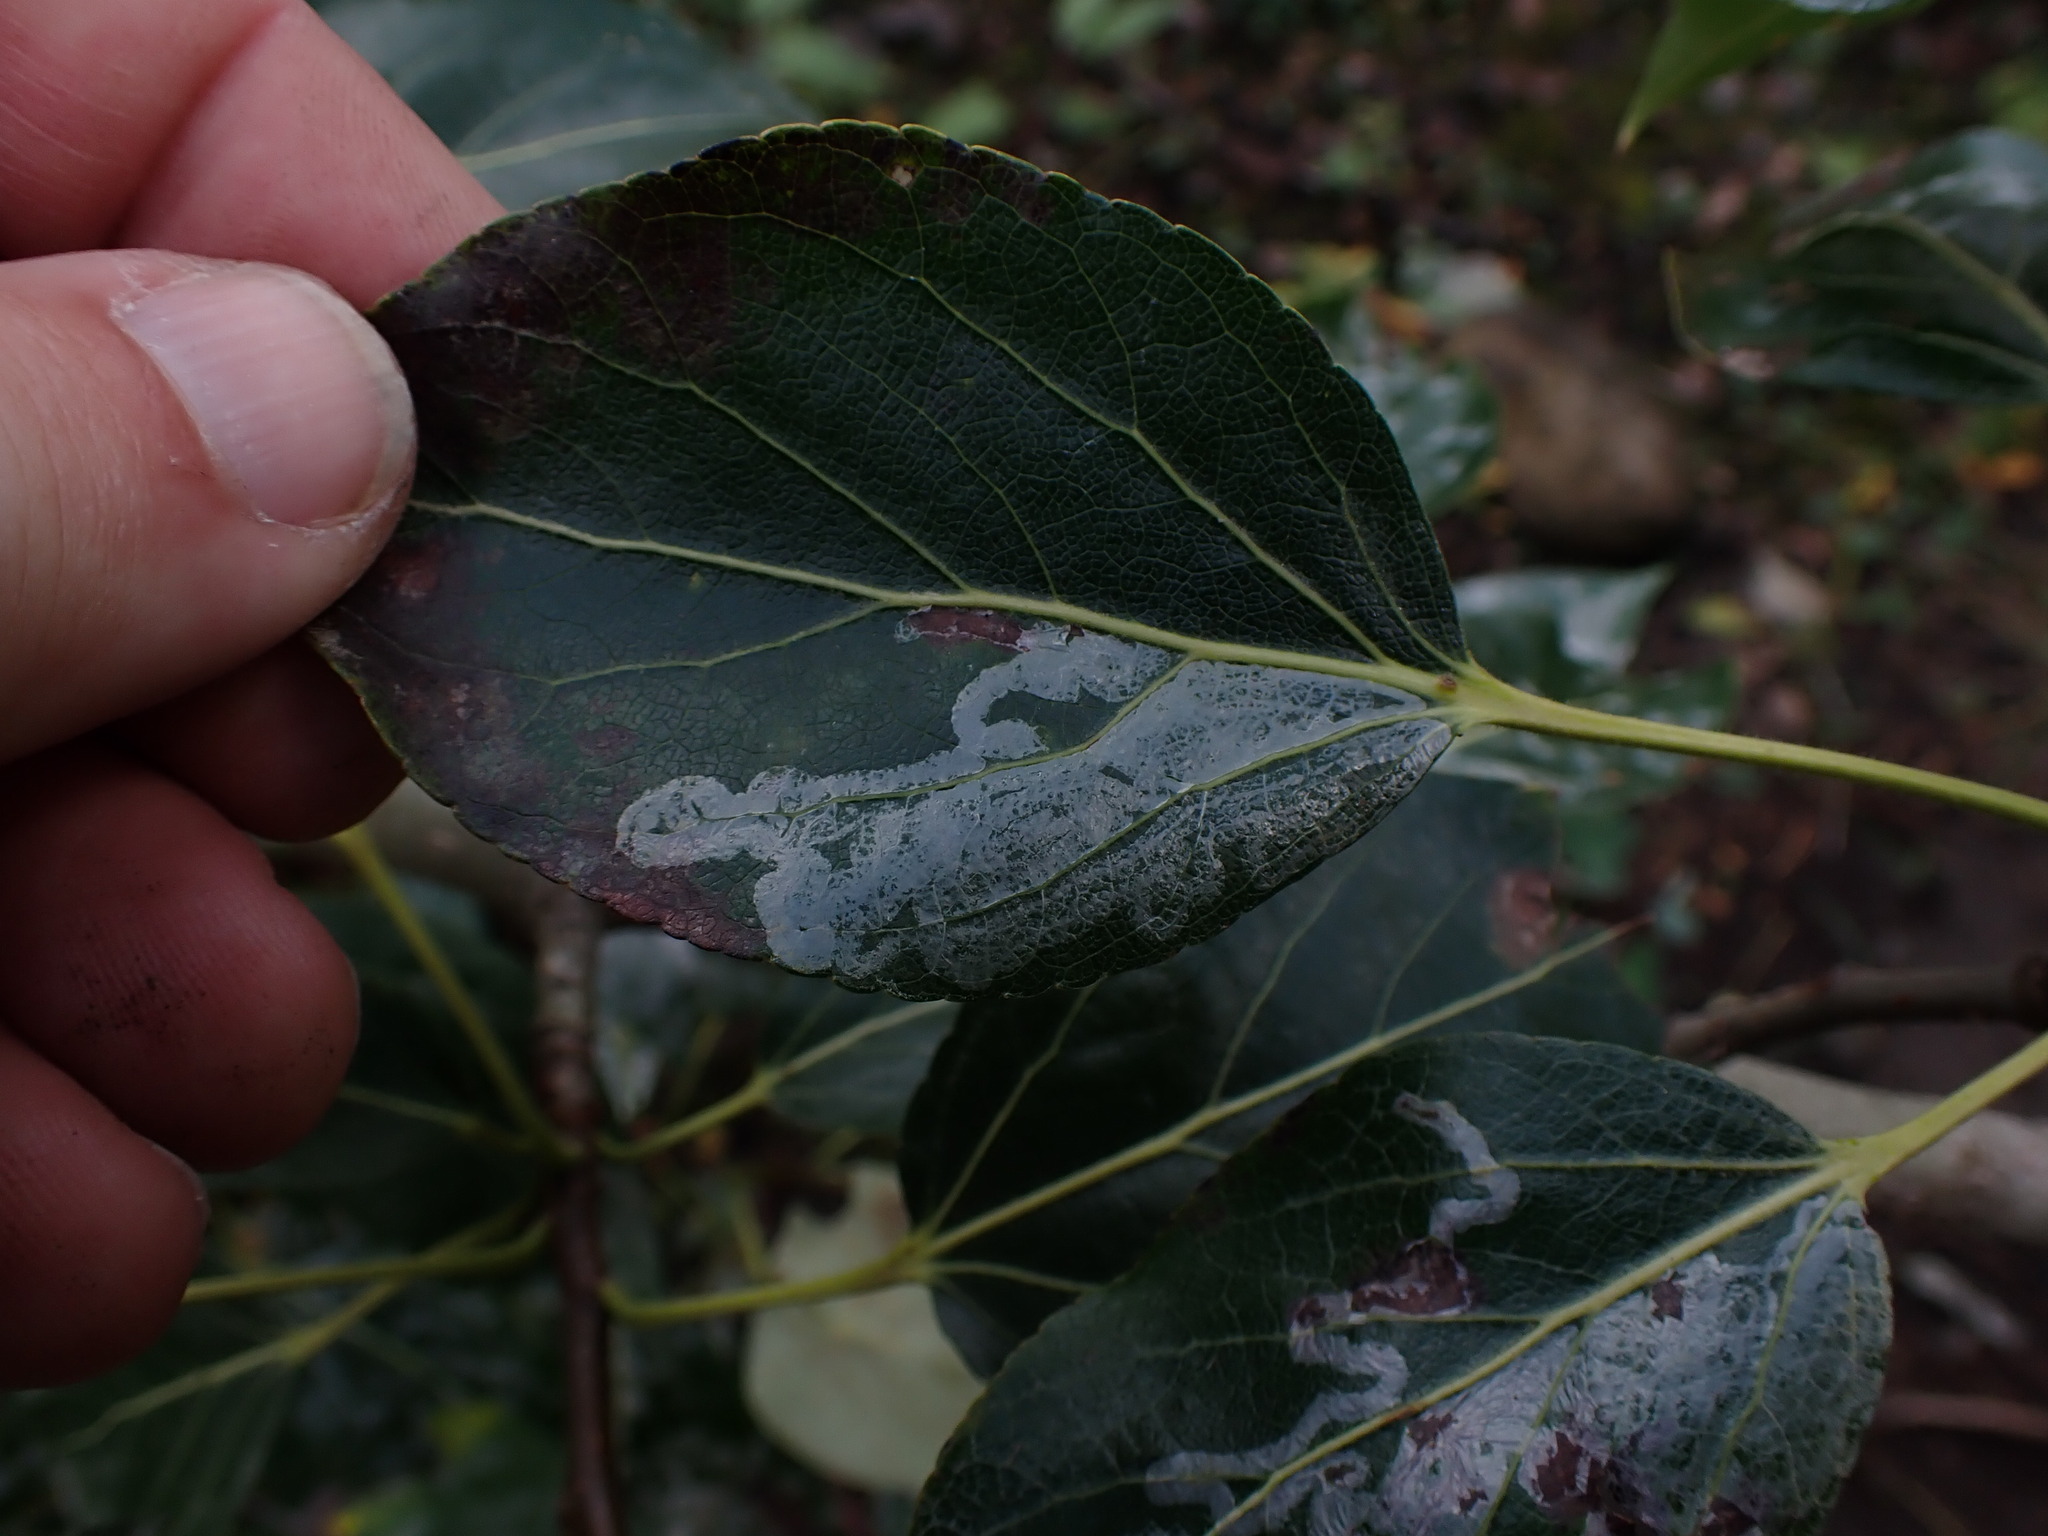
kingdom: Animalia
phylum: Arthropoda
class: Insecta
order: Lepidoptera
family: Gracillariidae
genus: Phyllocnistis
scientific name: Phyllocnistis populiella
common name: Aspen serpentine leafminer moth
